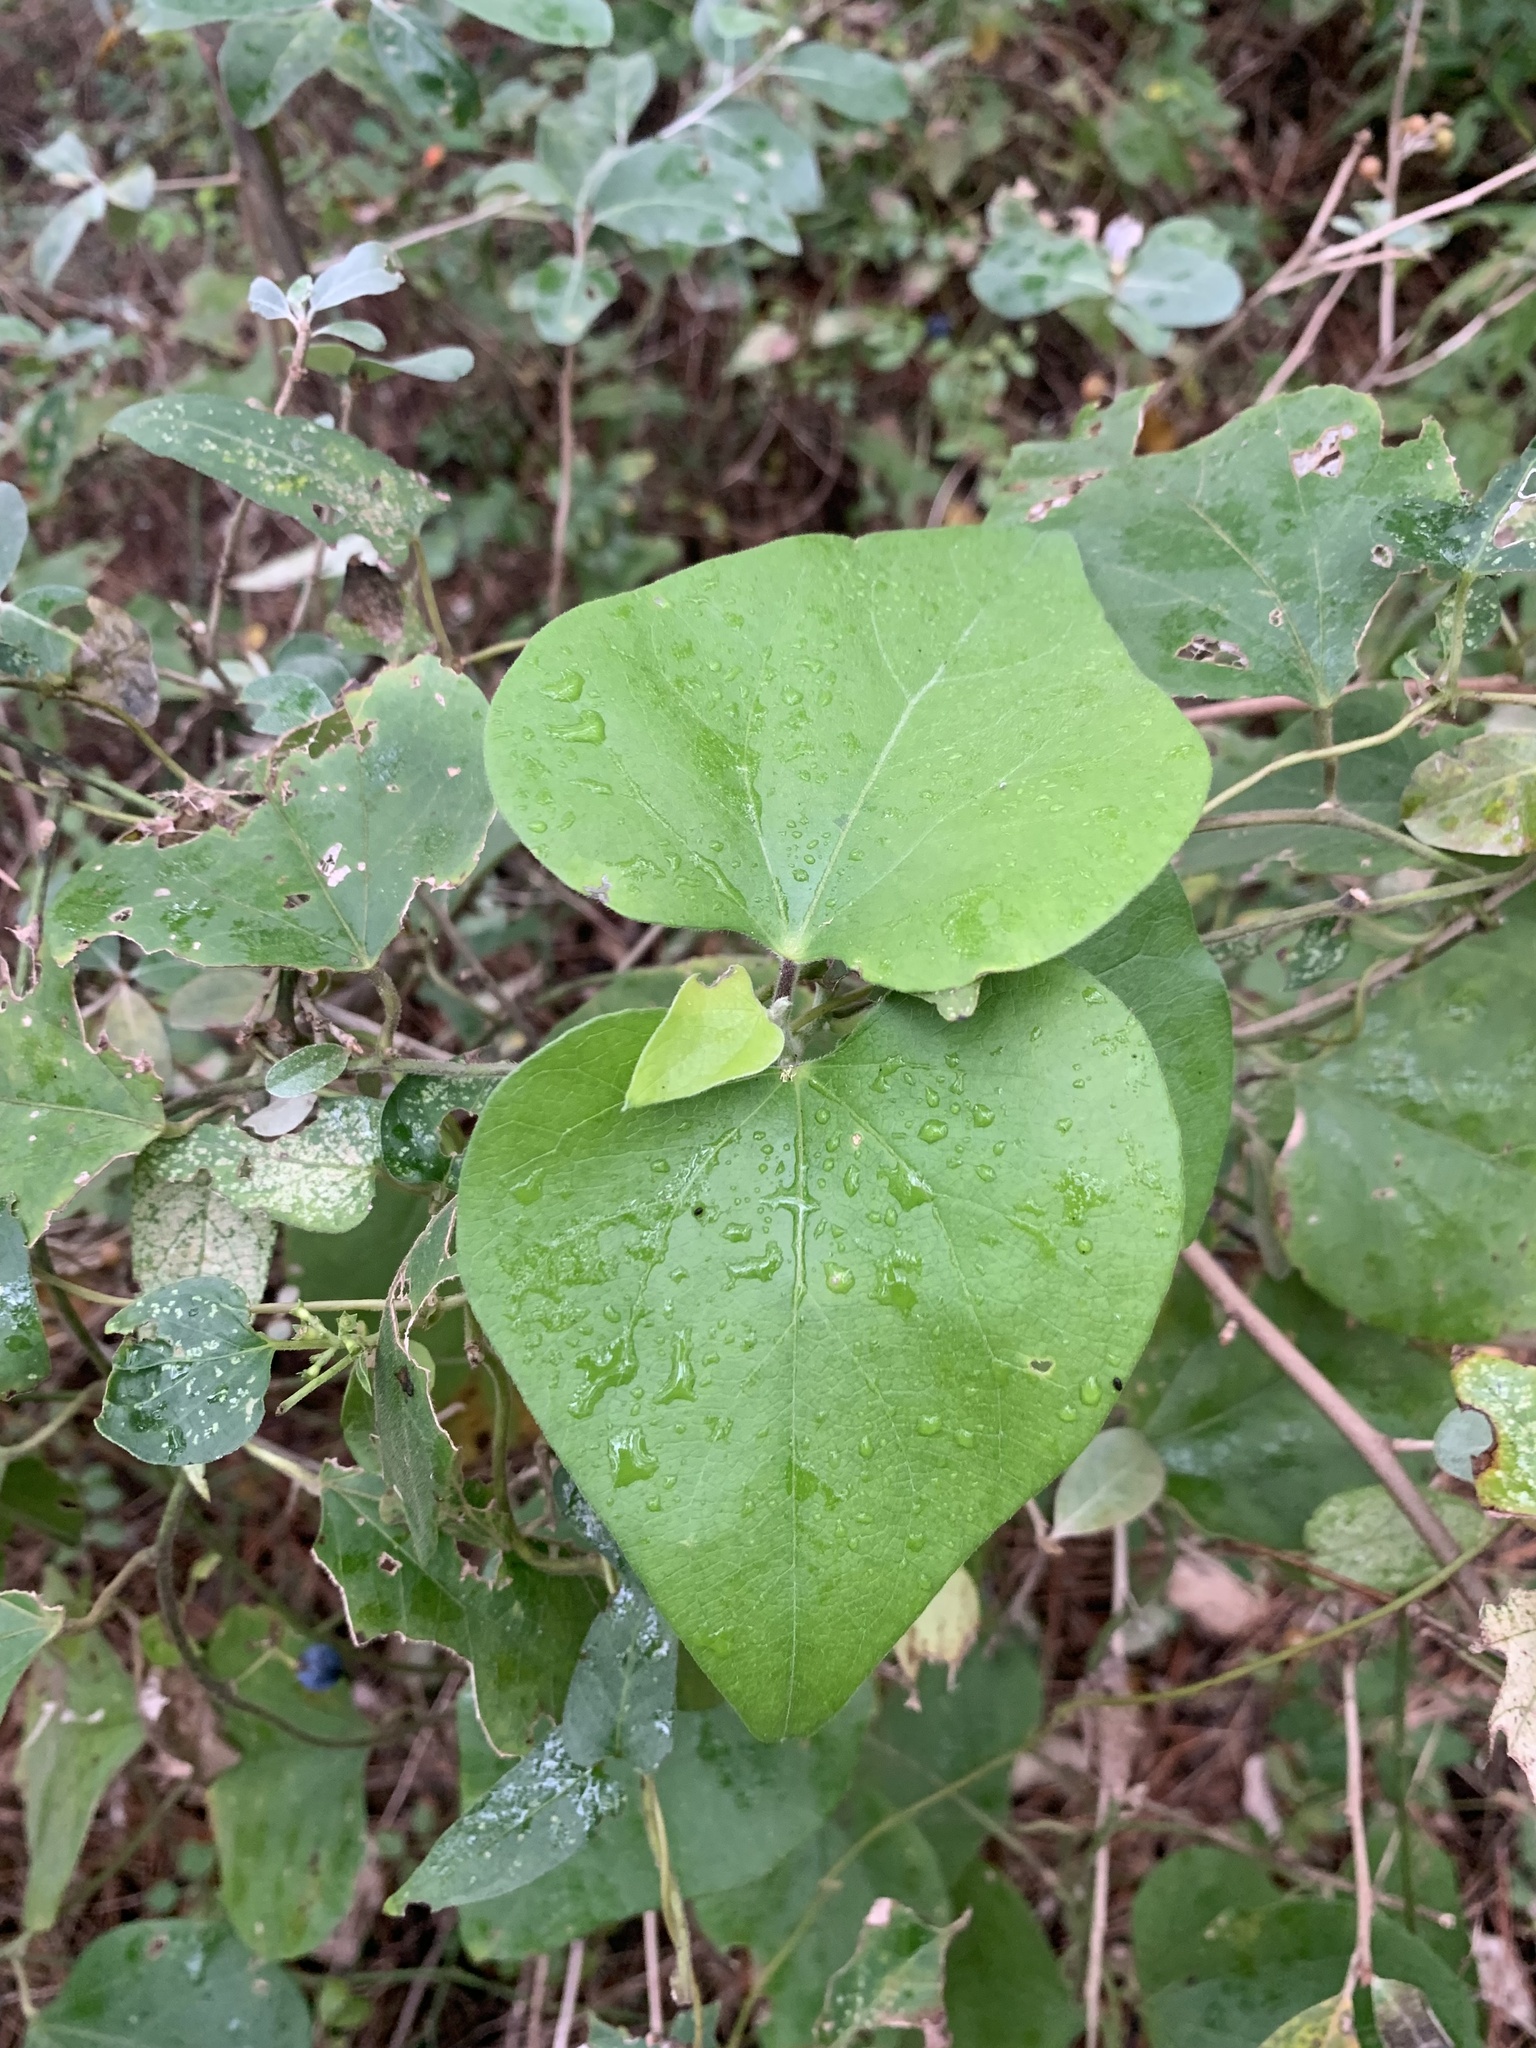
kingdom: Plantae
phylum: Tracheophyta
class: Magnoliopsida
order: Ranunculales
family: Menispermaceae
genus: Cocculus
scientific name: Cocculus orbiculatus
